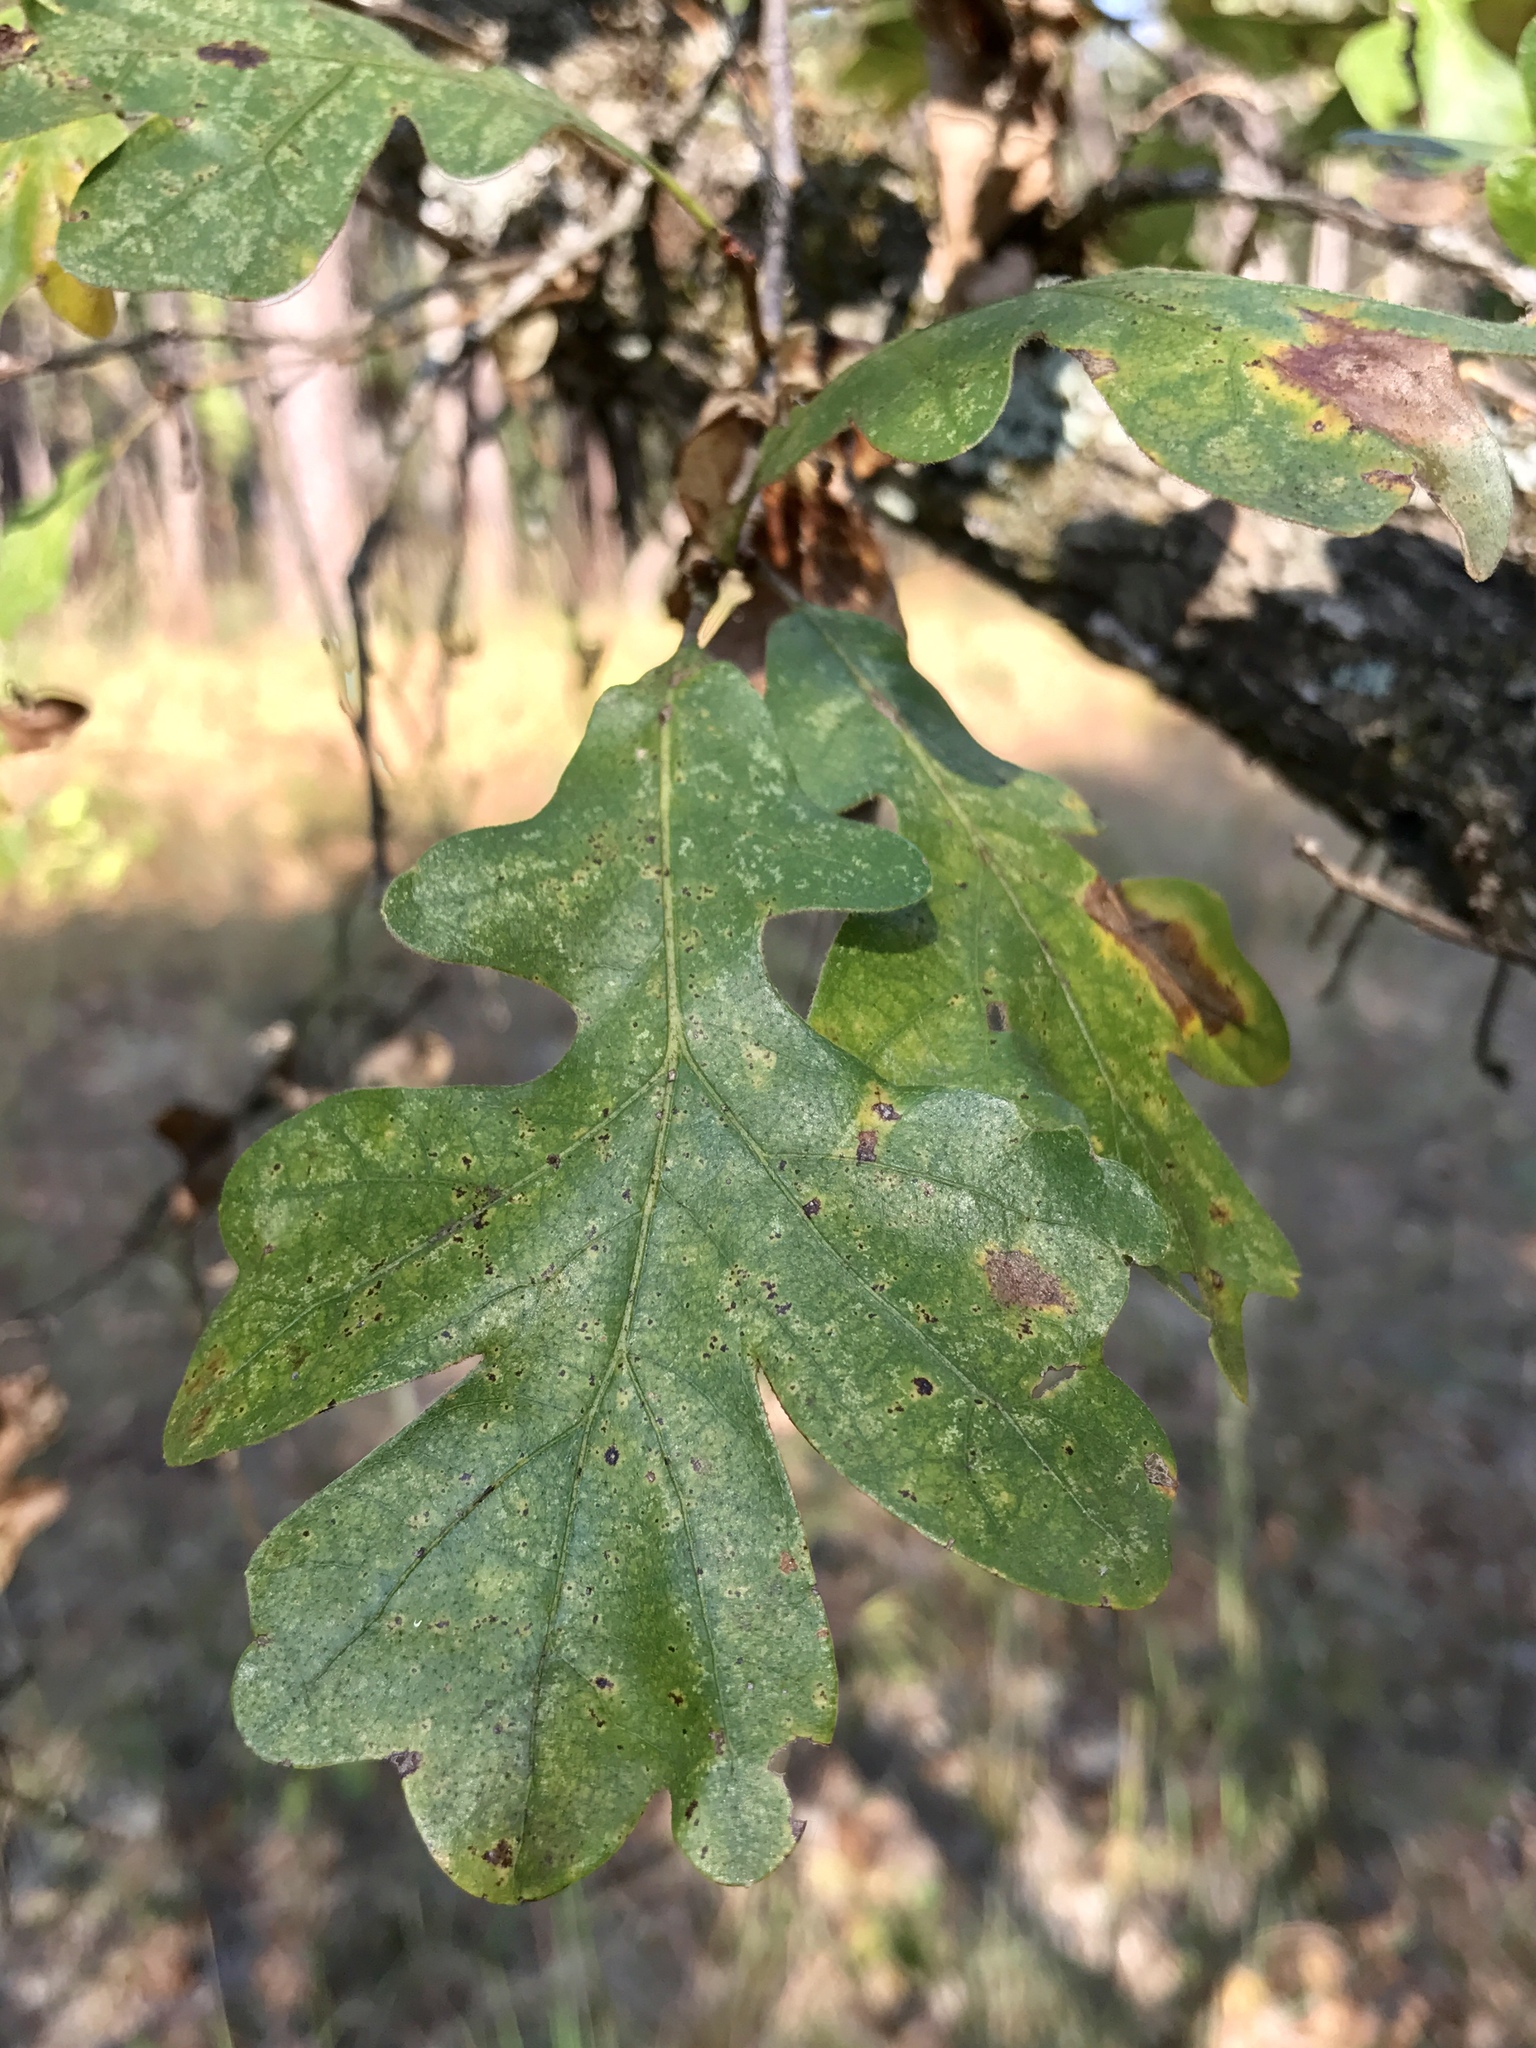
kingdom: Plantae
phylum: Tracheophyta
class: Magnoliopsida
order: Fagales
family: Fagaceae
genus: Quercus
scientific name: Quercus similis
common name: Delta post oak
